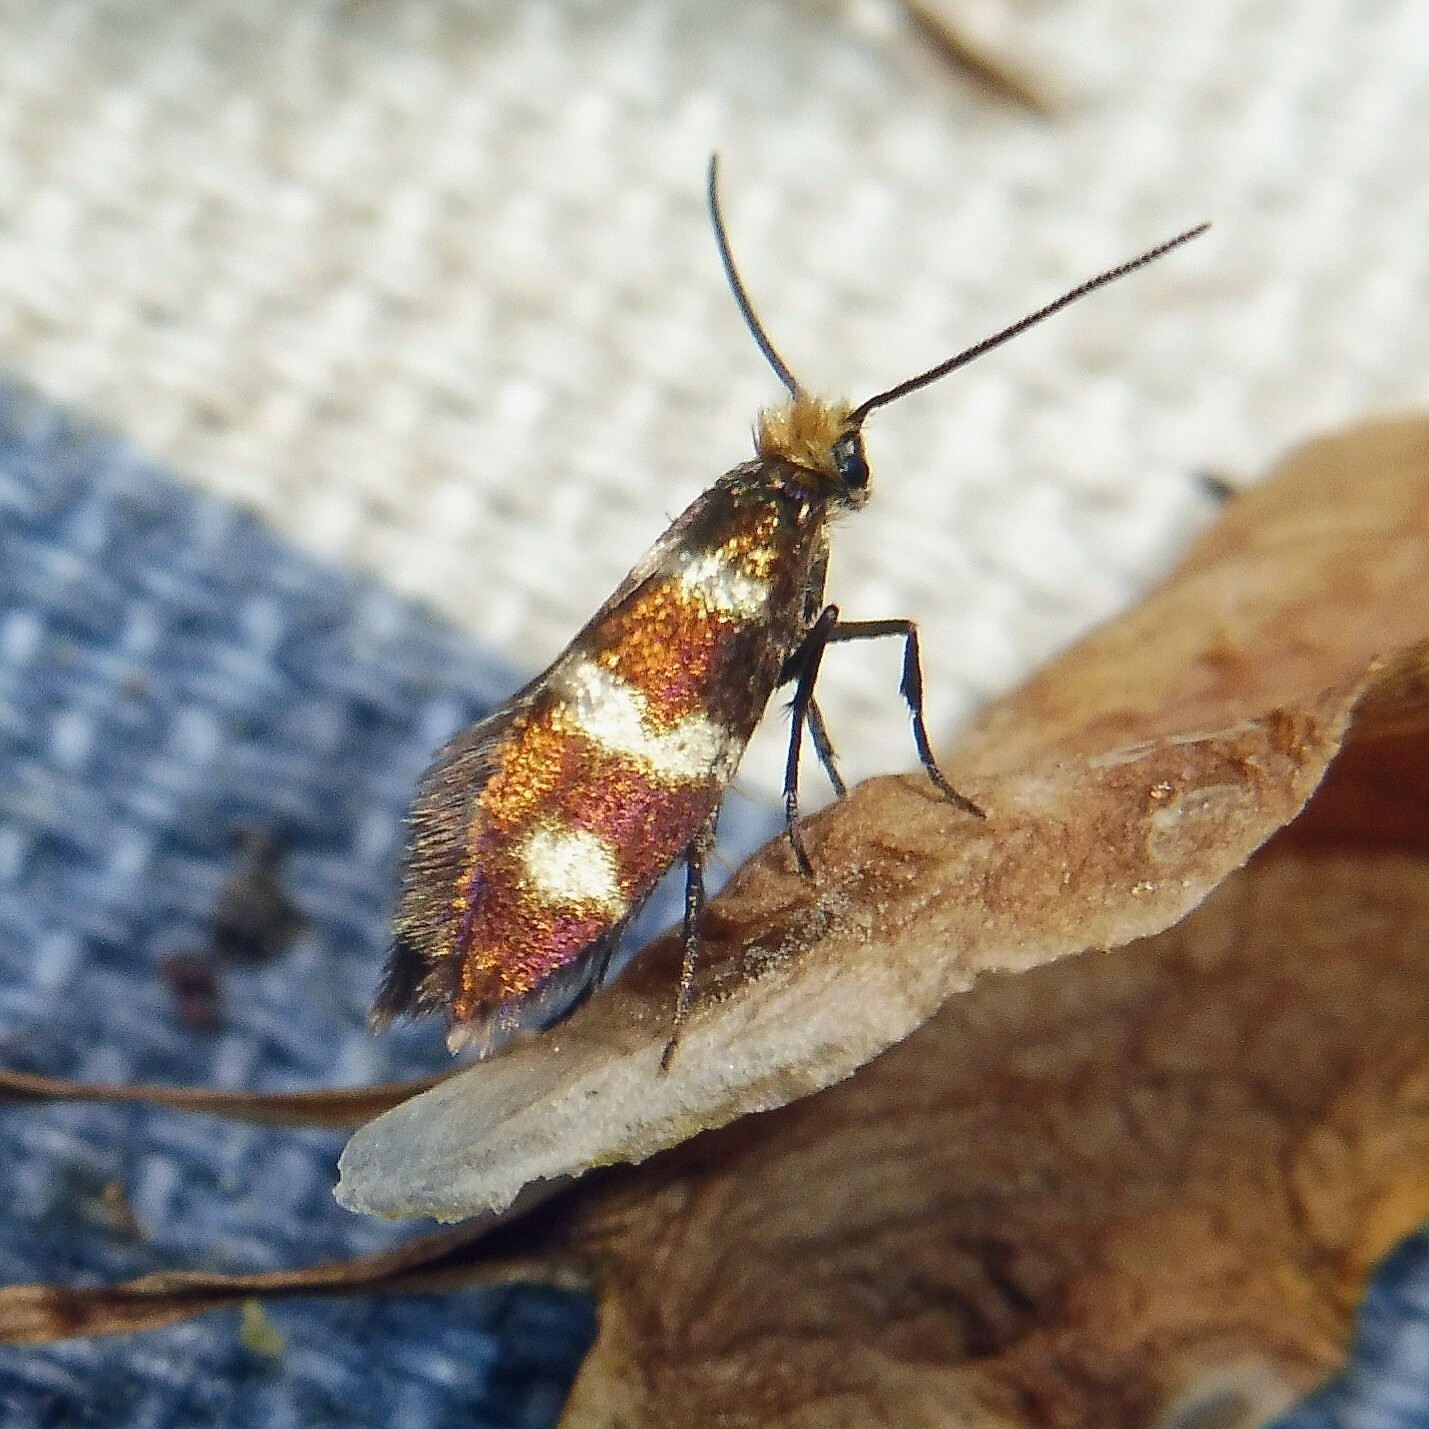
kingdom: Animalia
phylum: Arthropoda
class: Insecta
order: Lepidoptera
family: Micropterigidae
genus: Micropterix
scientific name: Micropterix aureatella
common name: Yellow-barred gold
